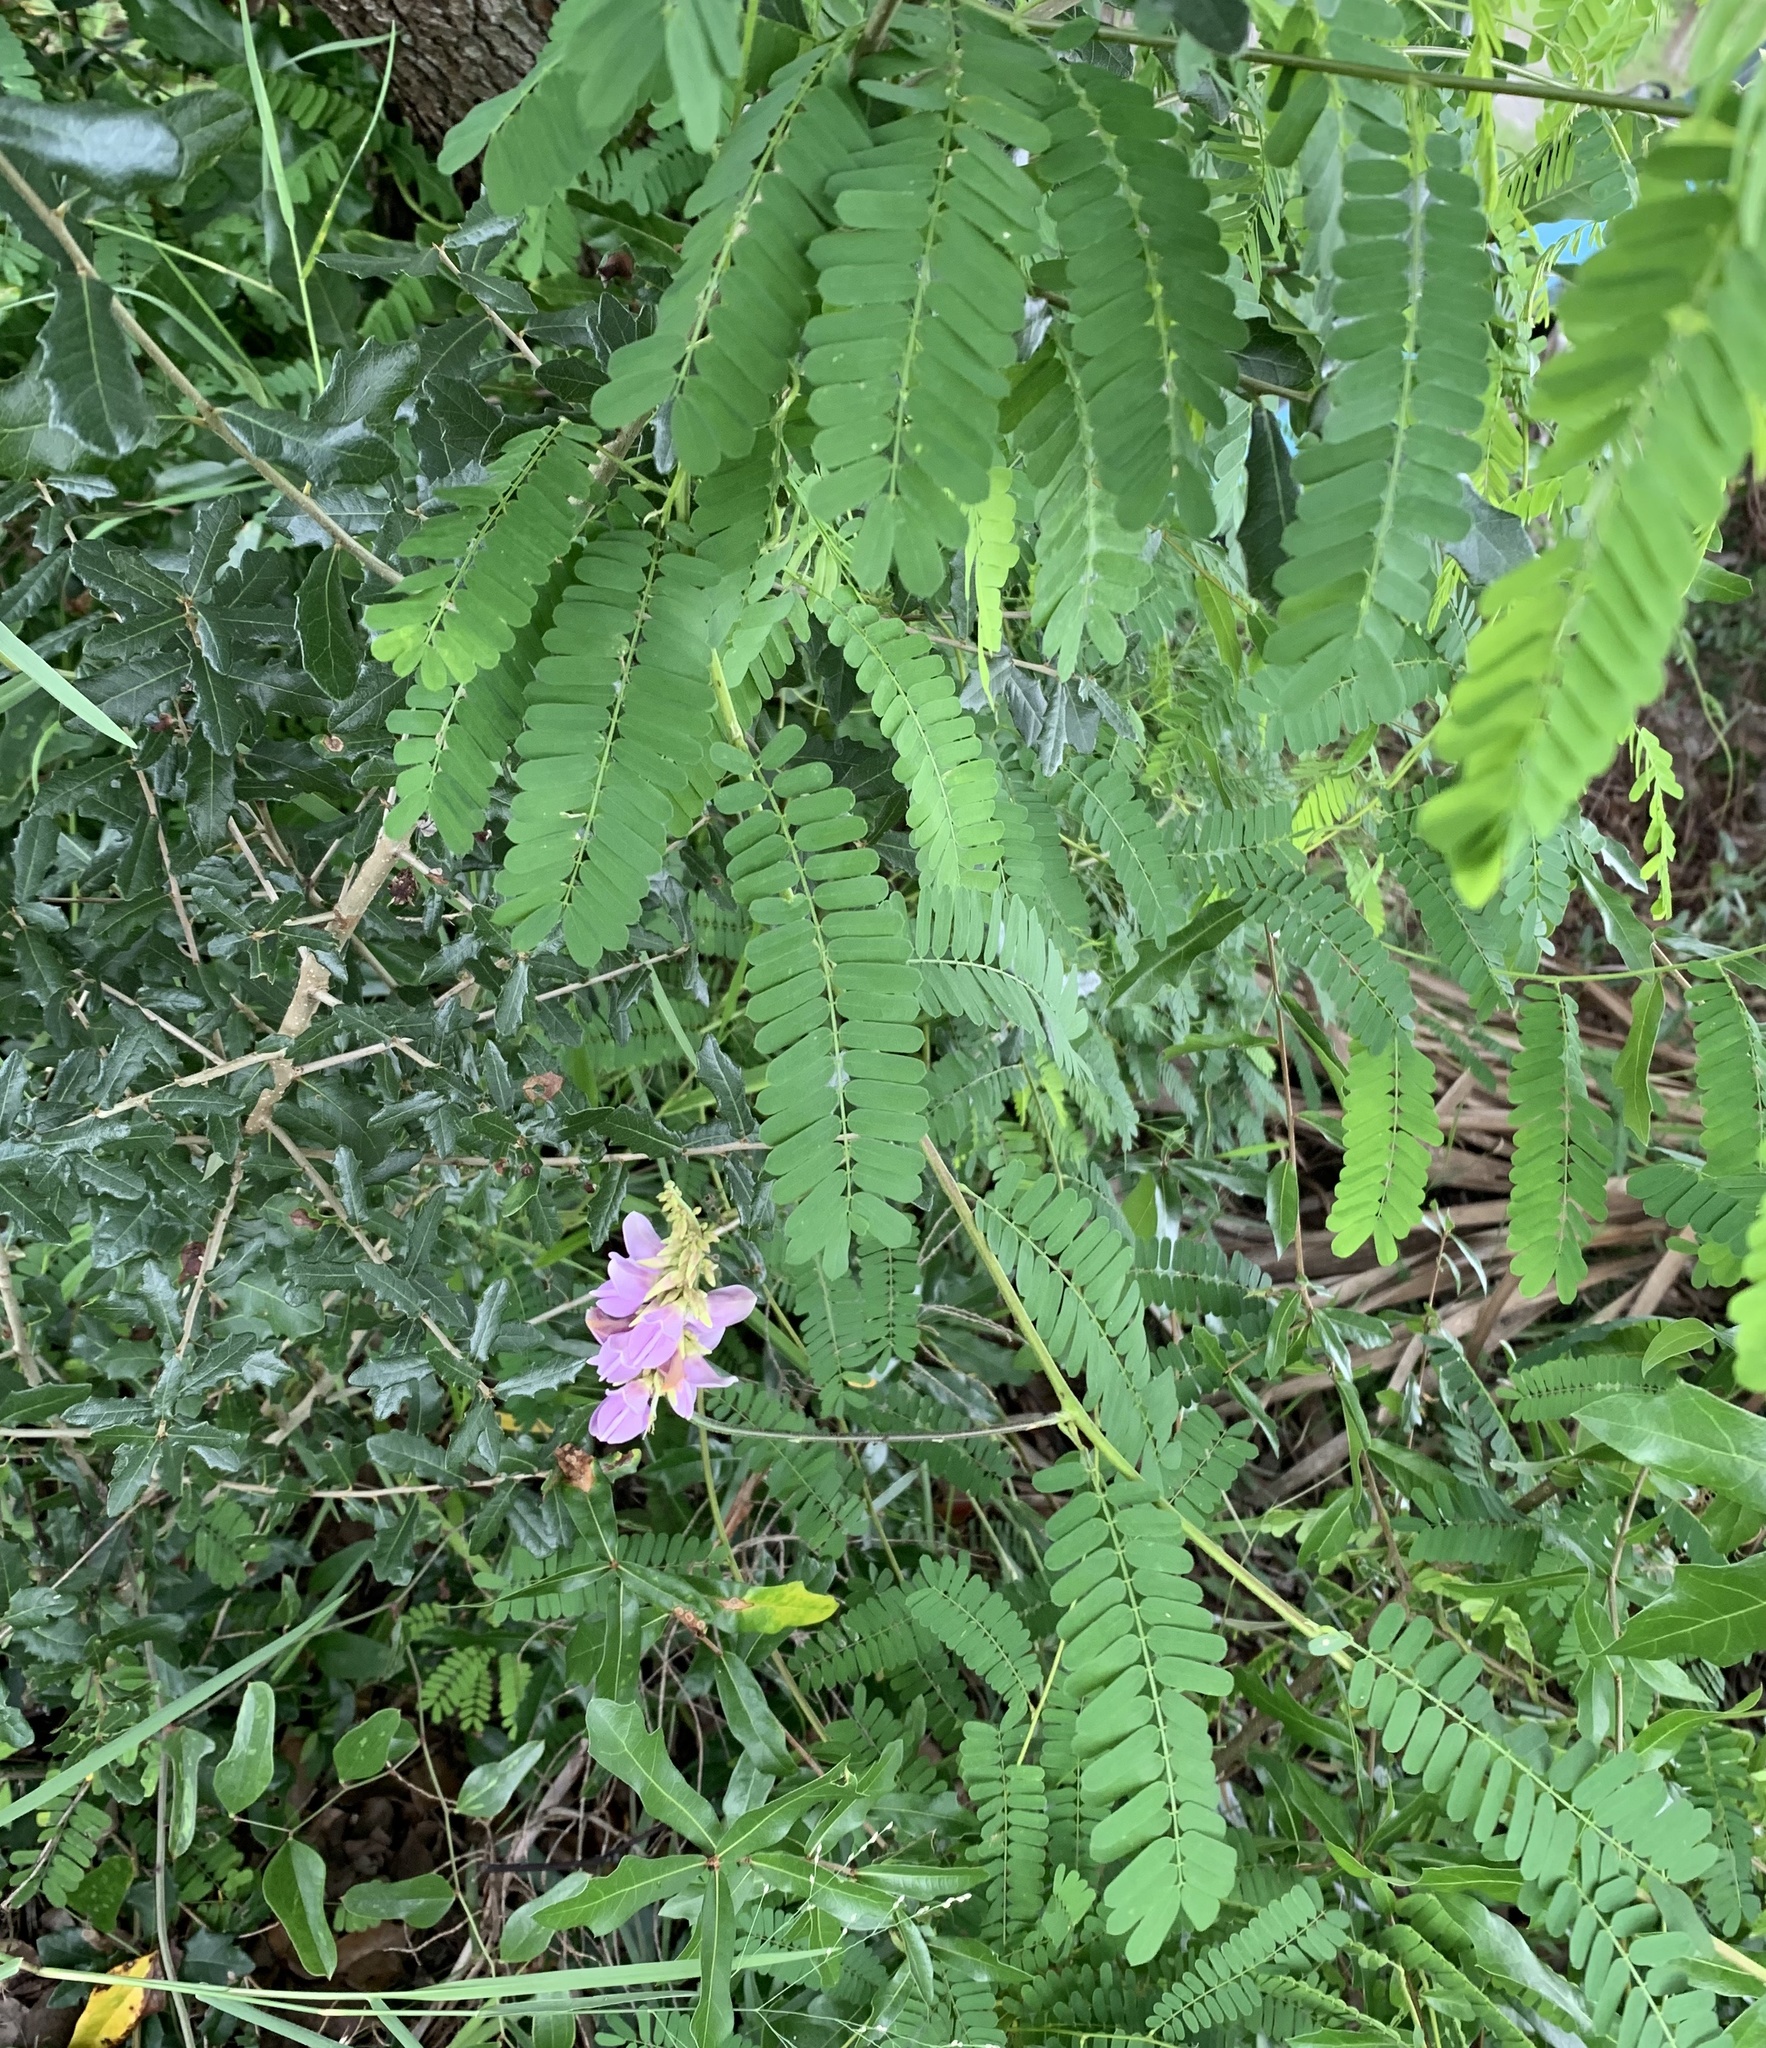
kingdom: Plantae
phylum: Tracheophyta
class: Magnoliopsida
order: Fabales
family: Fabaceae
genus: Abrus
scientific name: Abrus precatorius
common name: Rosarypea
